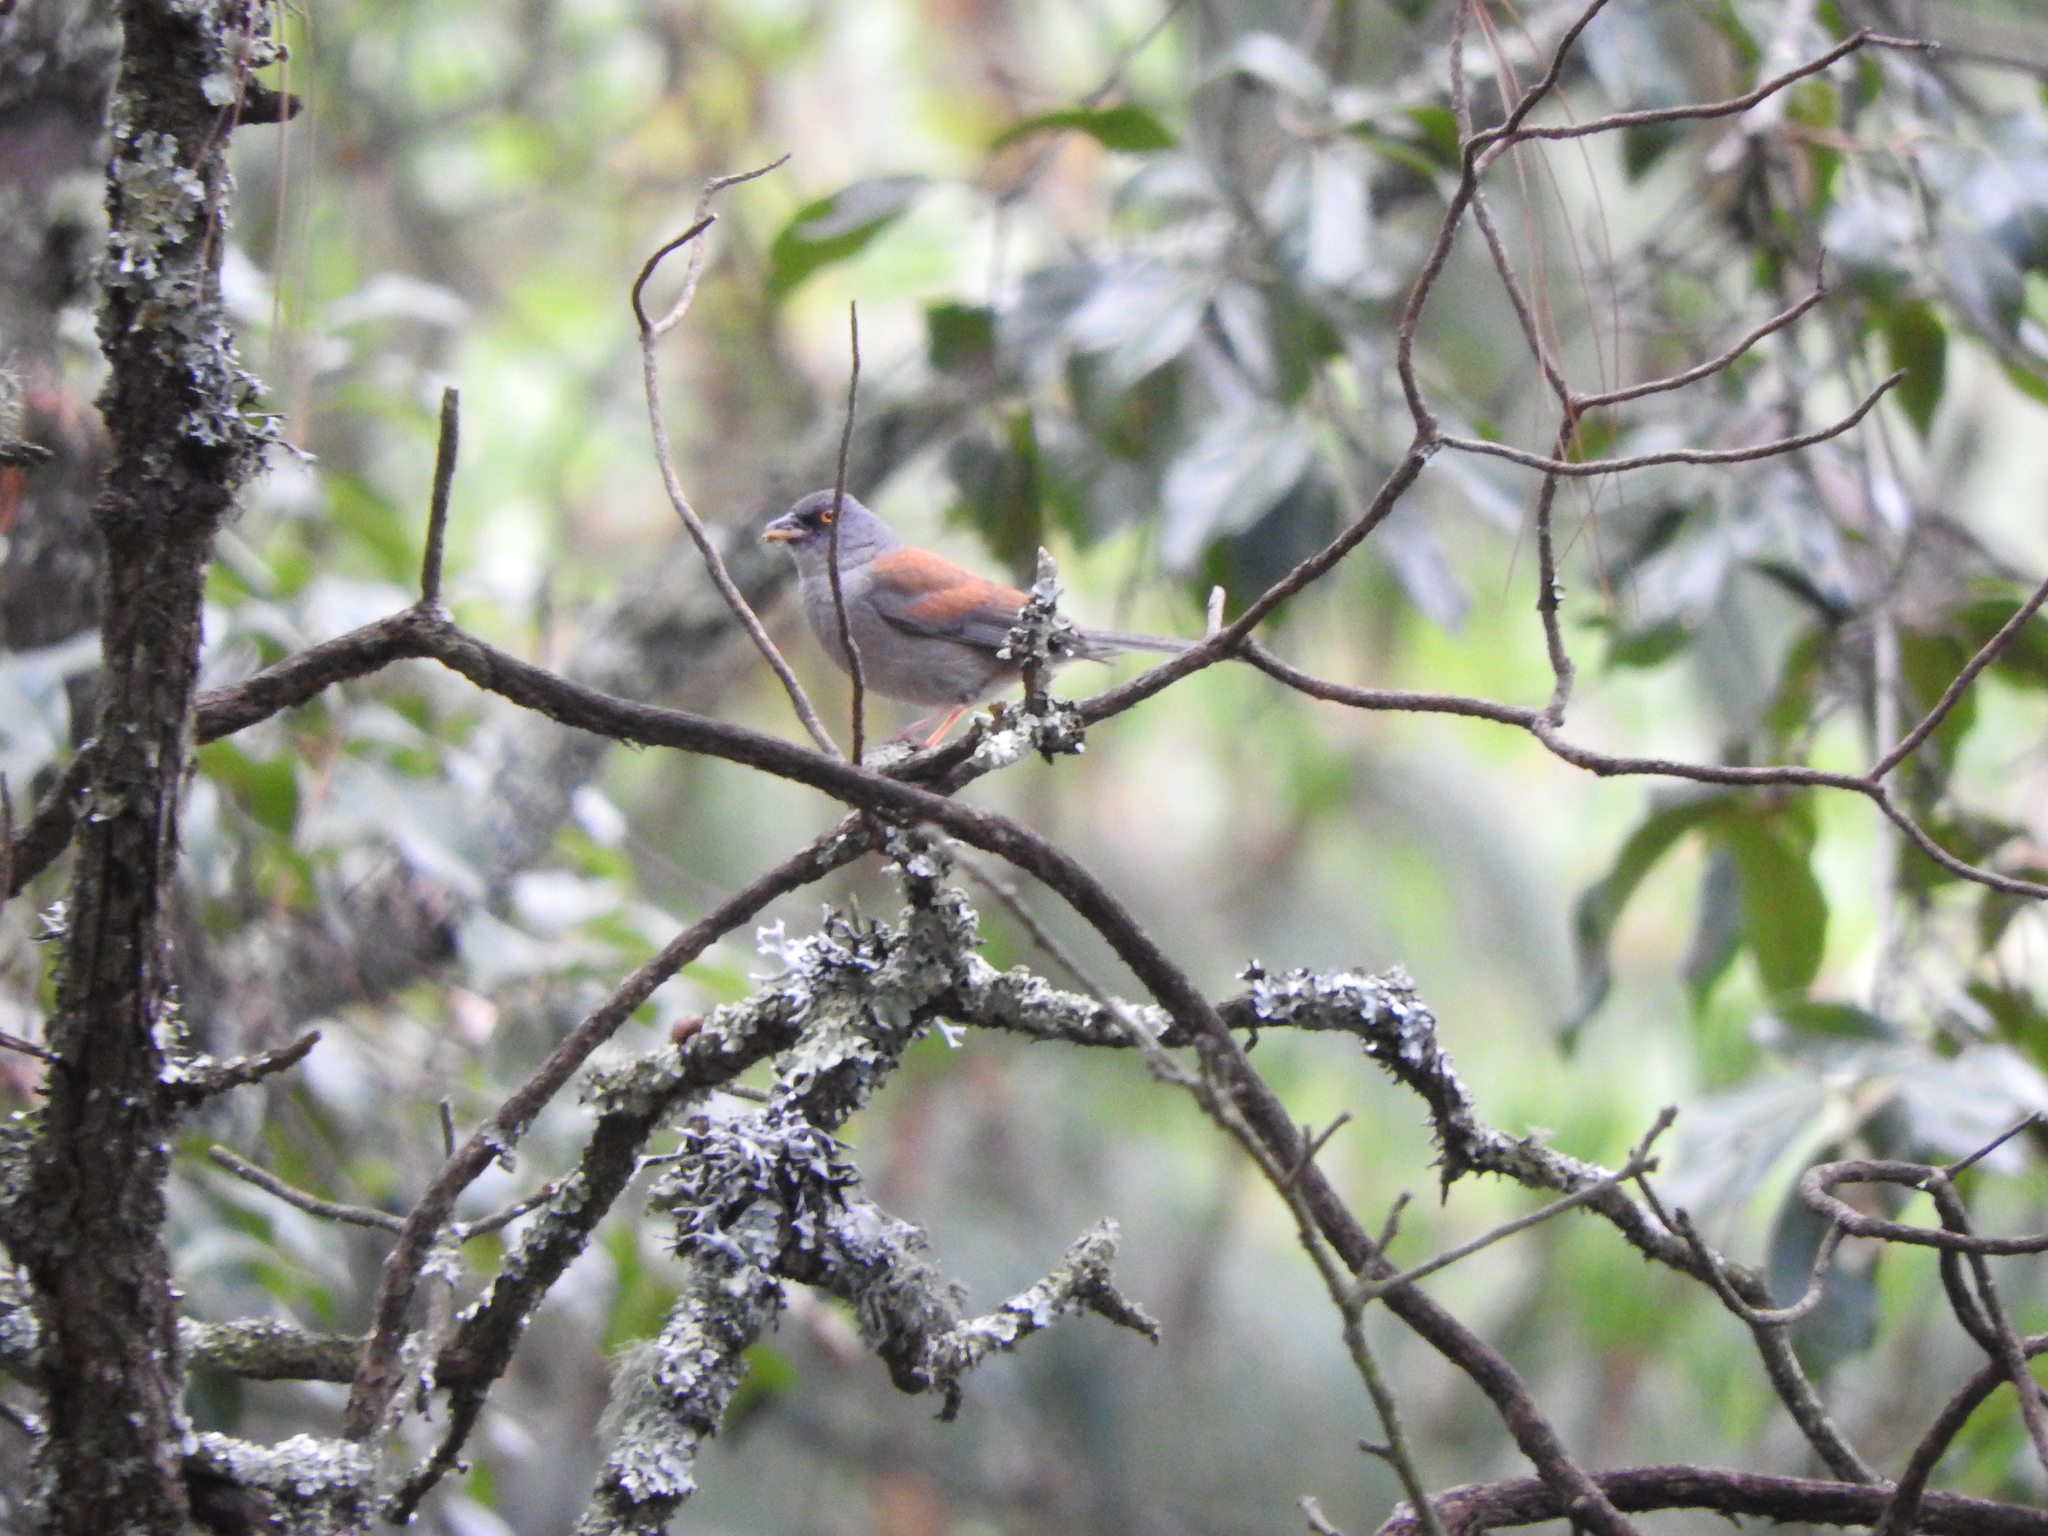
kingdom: Animalia
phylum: Chordata
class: Aves
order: Passeriformes
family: Passerellidae
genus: Junco
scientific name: Junco phaeonotus
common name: Yellow-eyed junco
